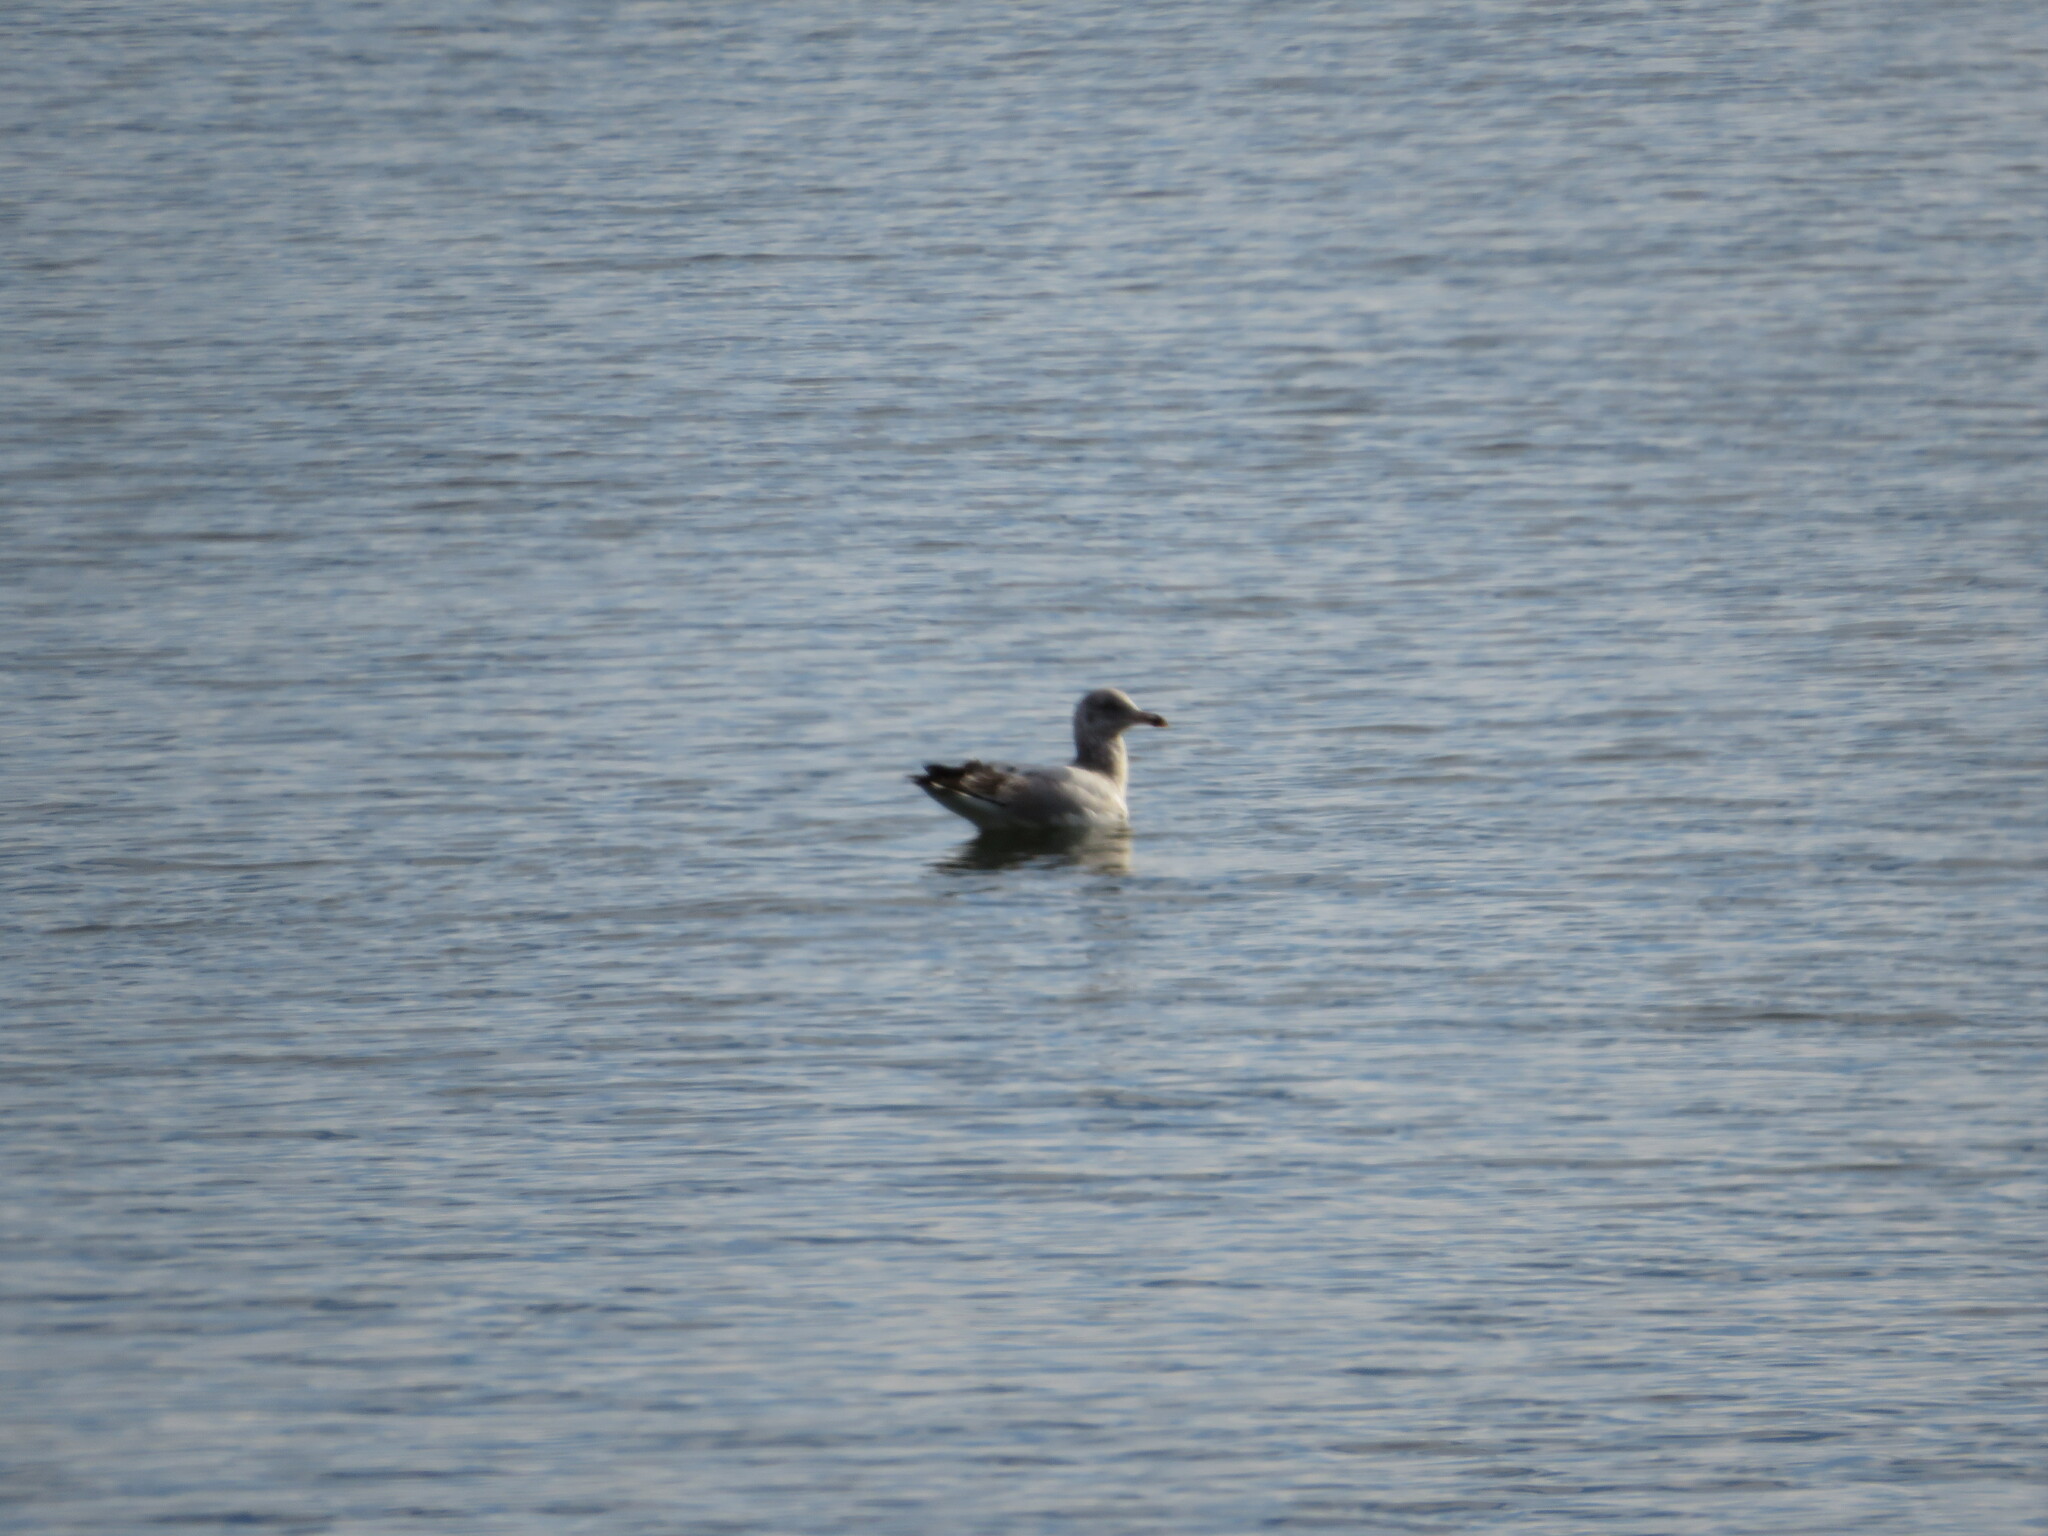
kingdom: Animalia
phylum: Chordata
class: Aves
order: Charadriiformes
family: Laridae
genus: Larus
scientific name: Larus argentatus
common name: Herring gull
